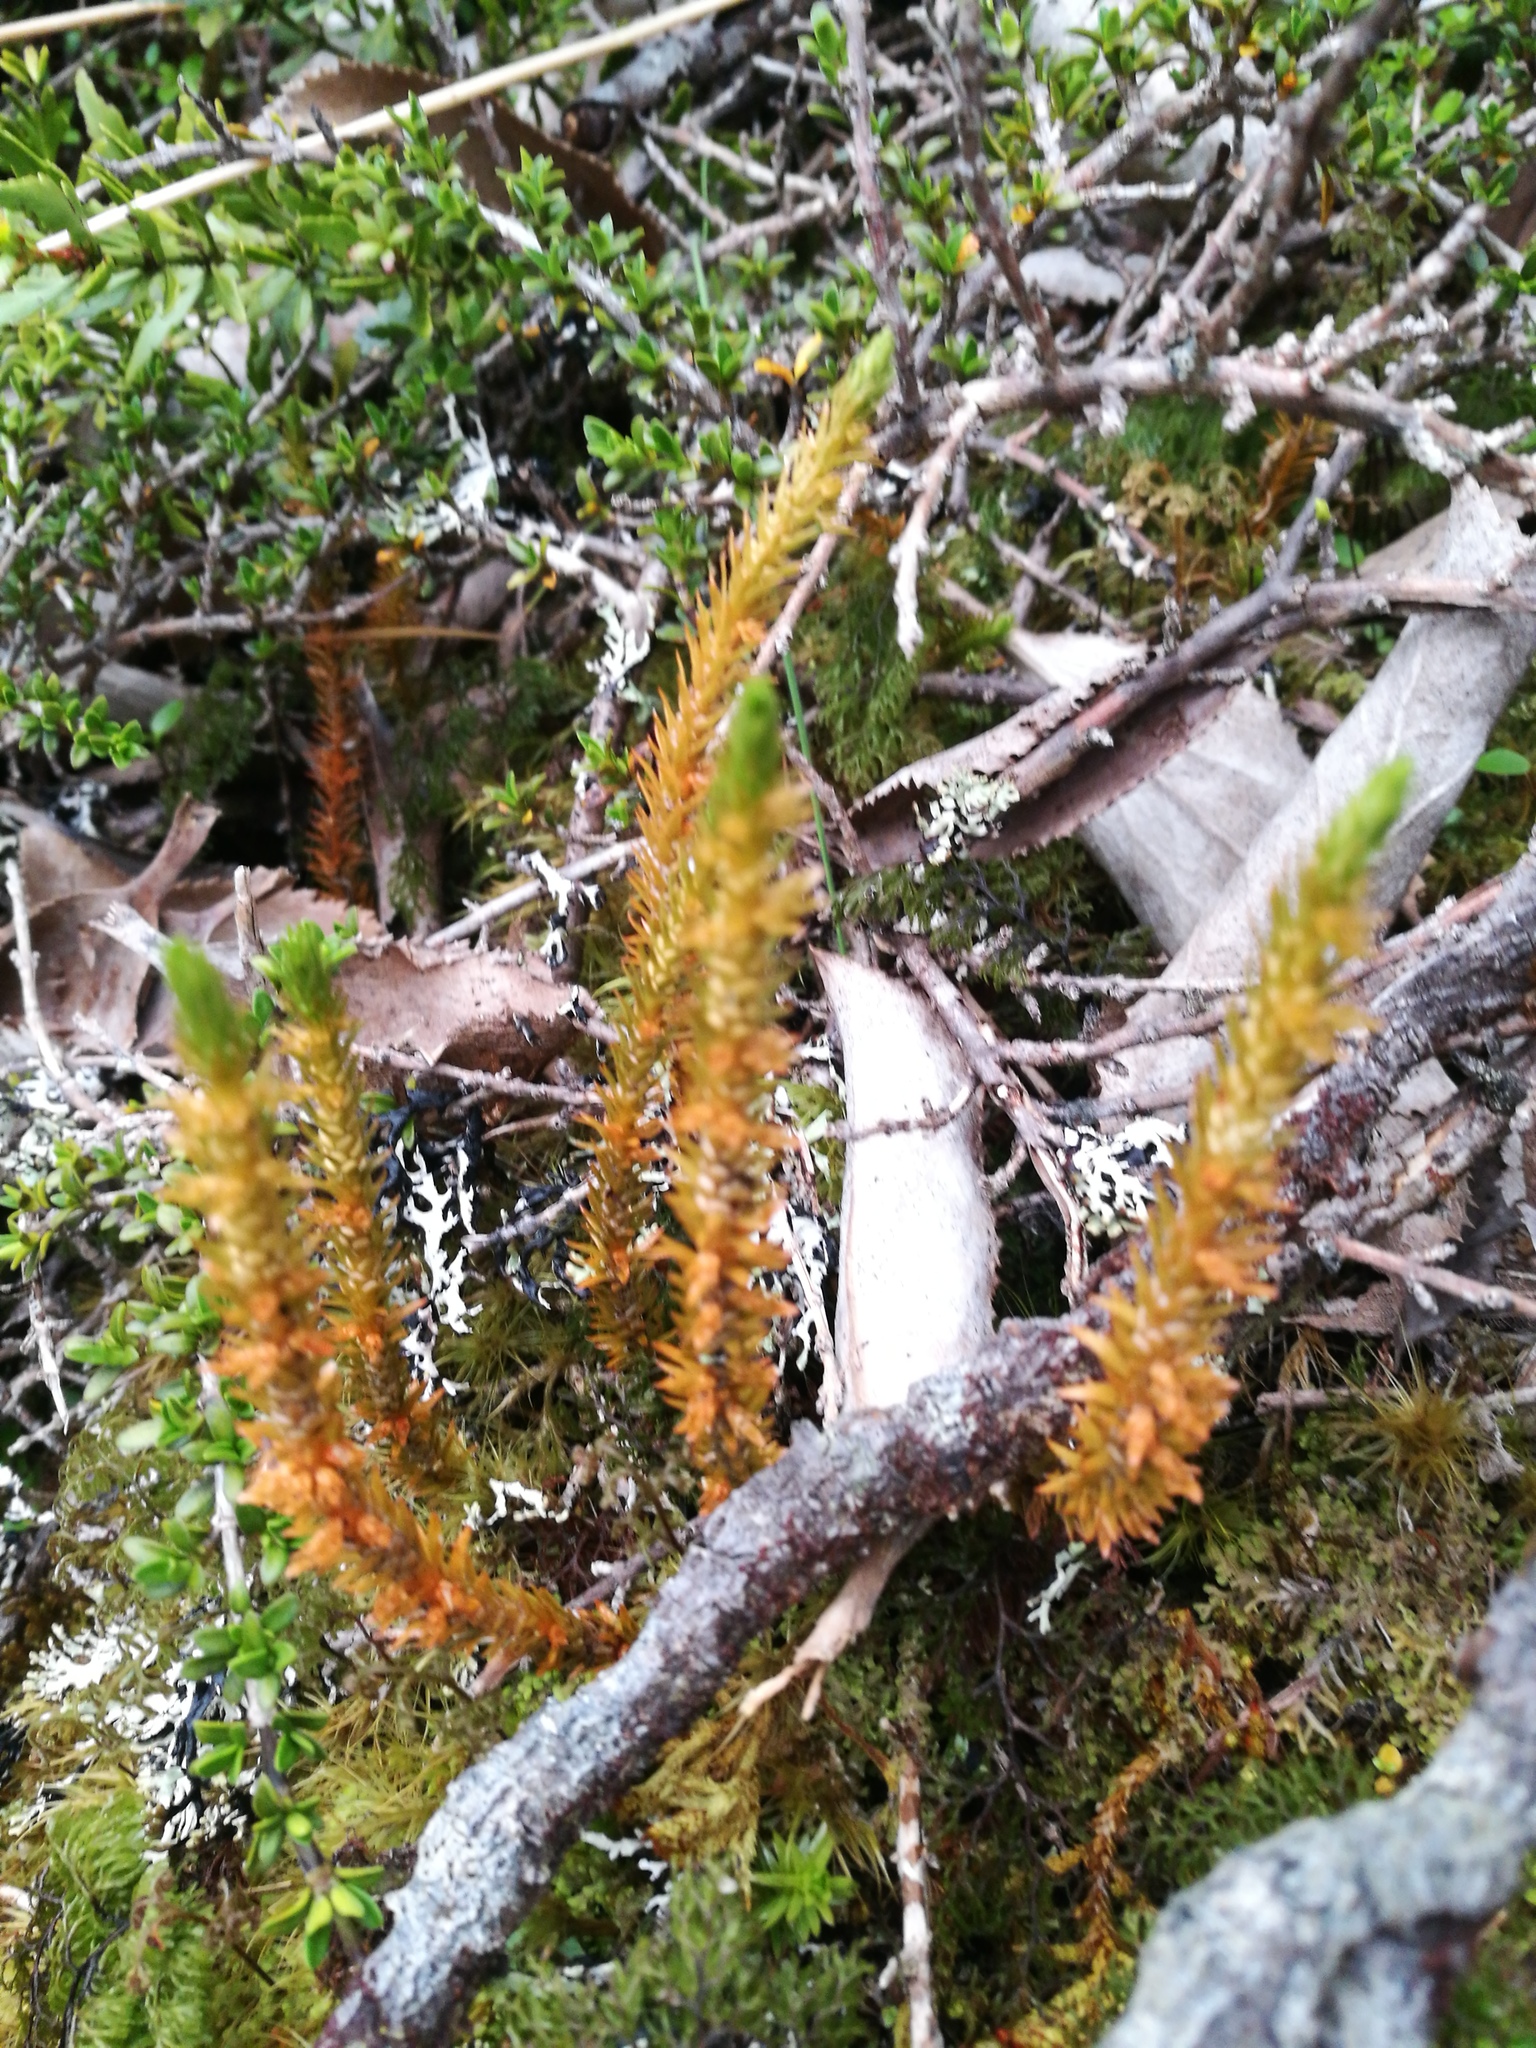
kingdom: Plantae
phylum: Tracheophyta
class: Lycopodiopsida
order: Lycopodiales
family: Lycopodiaceae
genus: Huperzia
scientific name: Huperzia australiana
